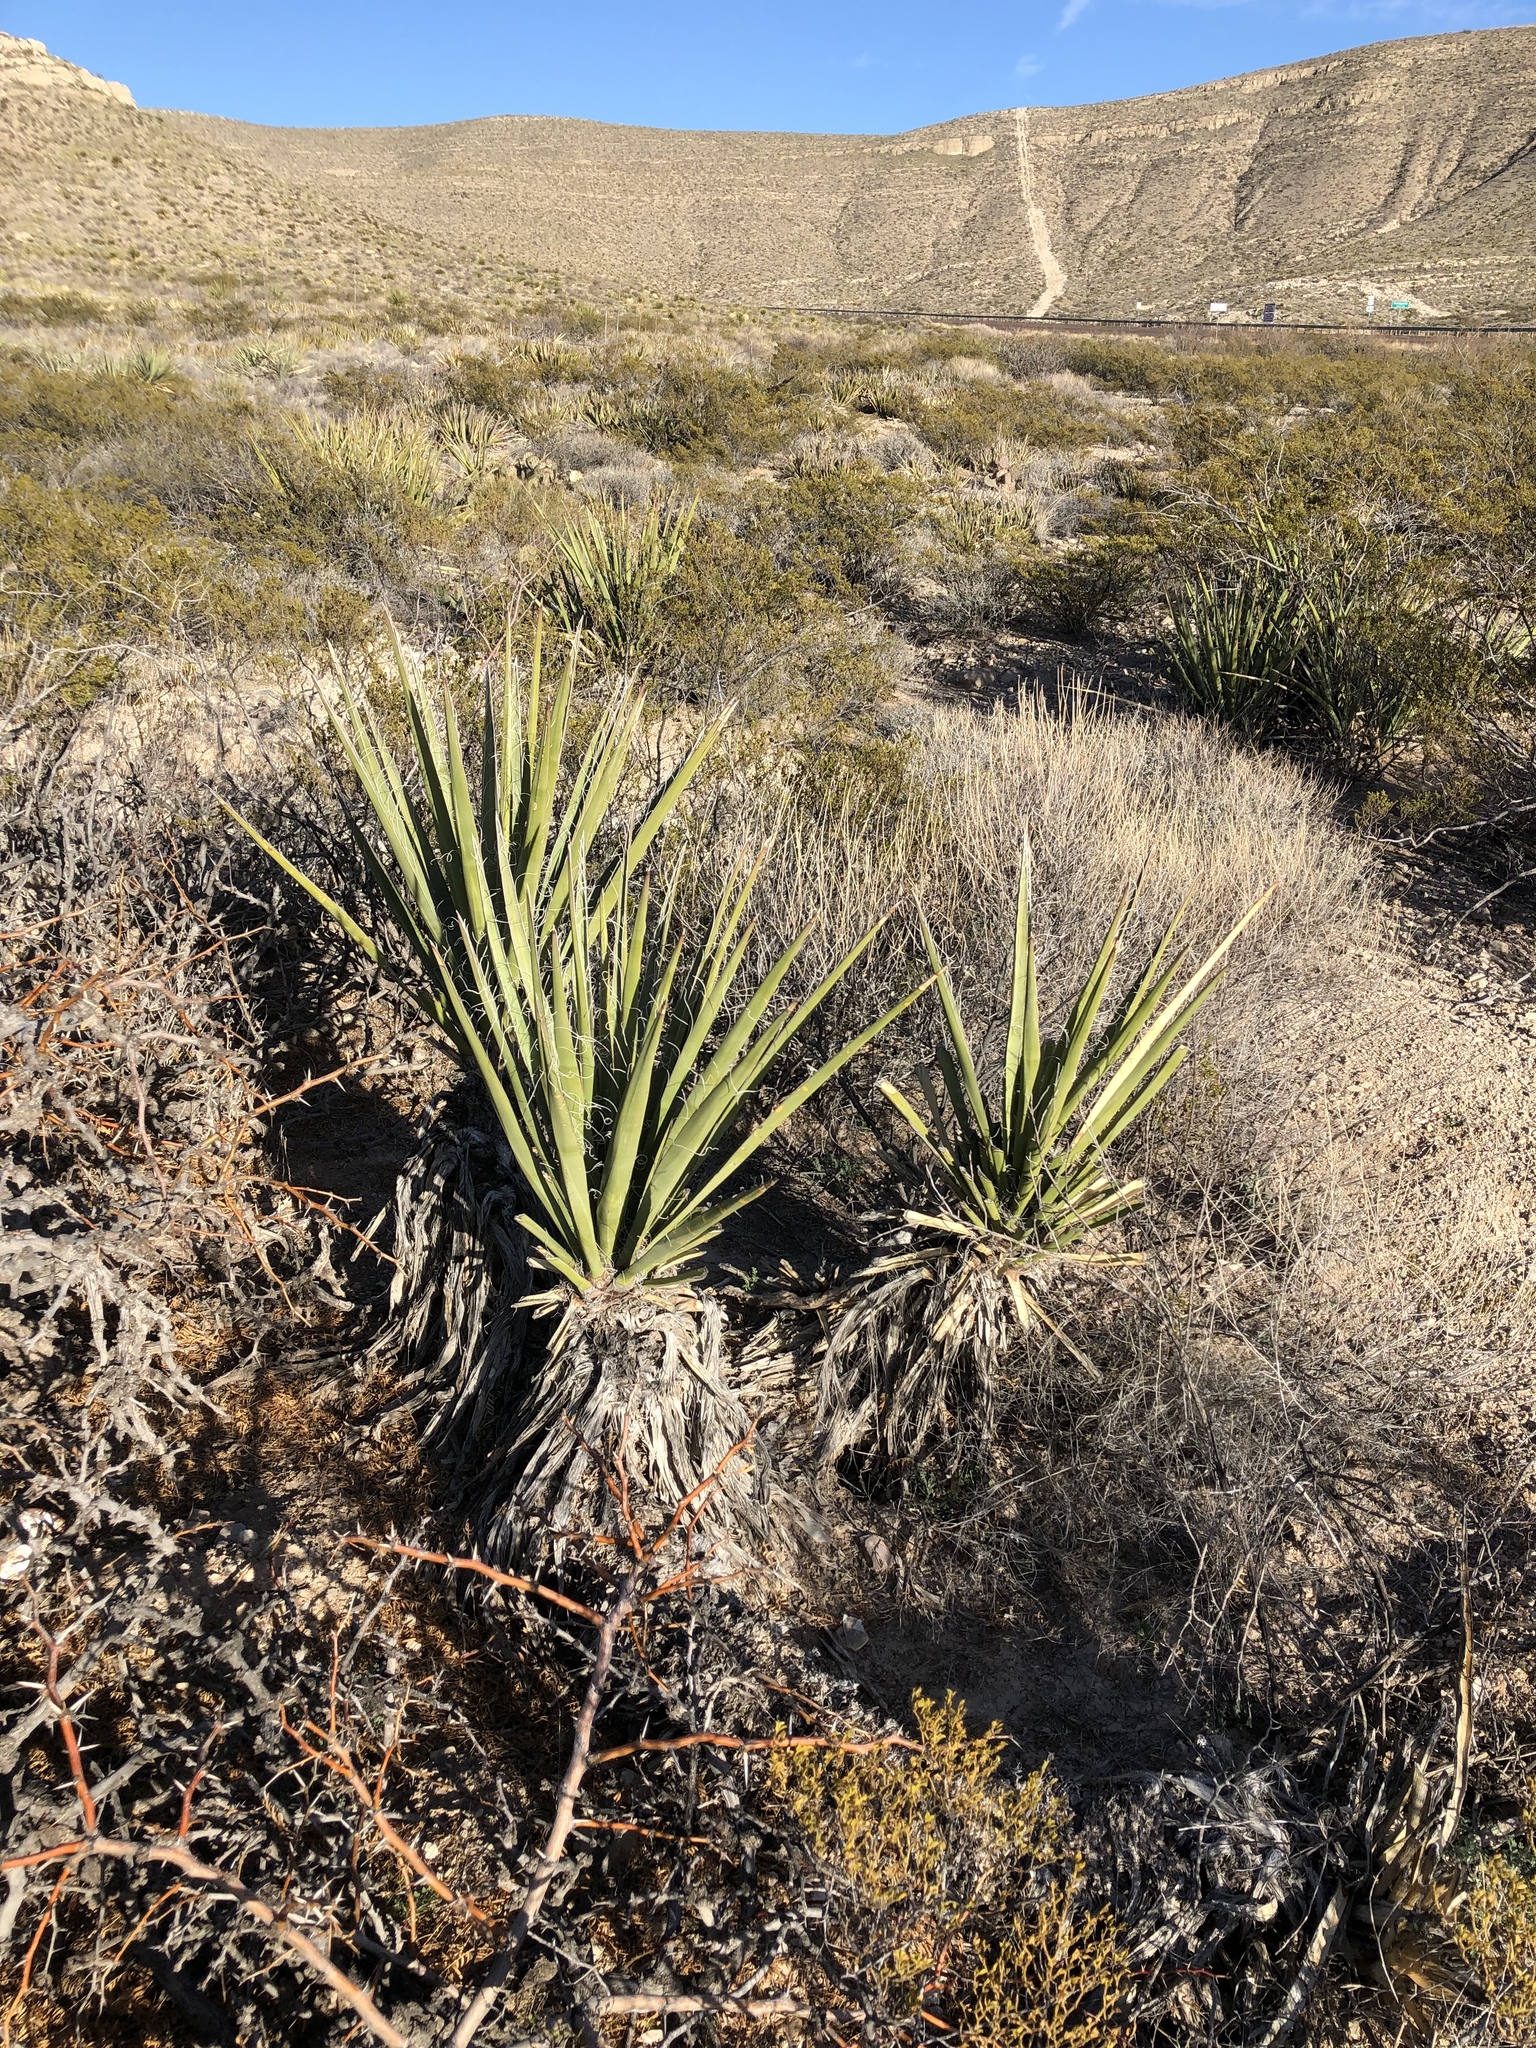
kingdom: Plantae
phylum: Tracheophyta
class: Liliopsida
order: Asparagales
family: Asparagaceae
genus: Yucca
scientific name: Yucca baccata
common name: Banana yucca
